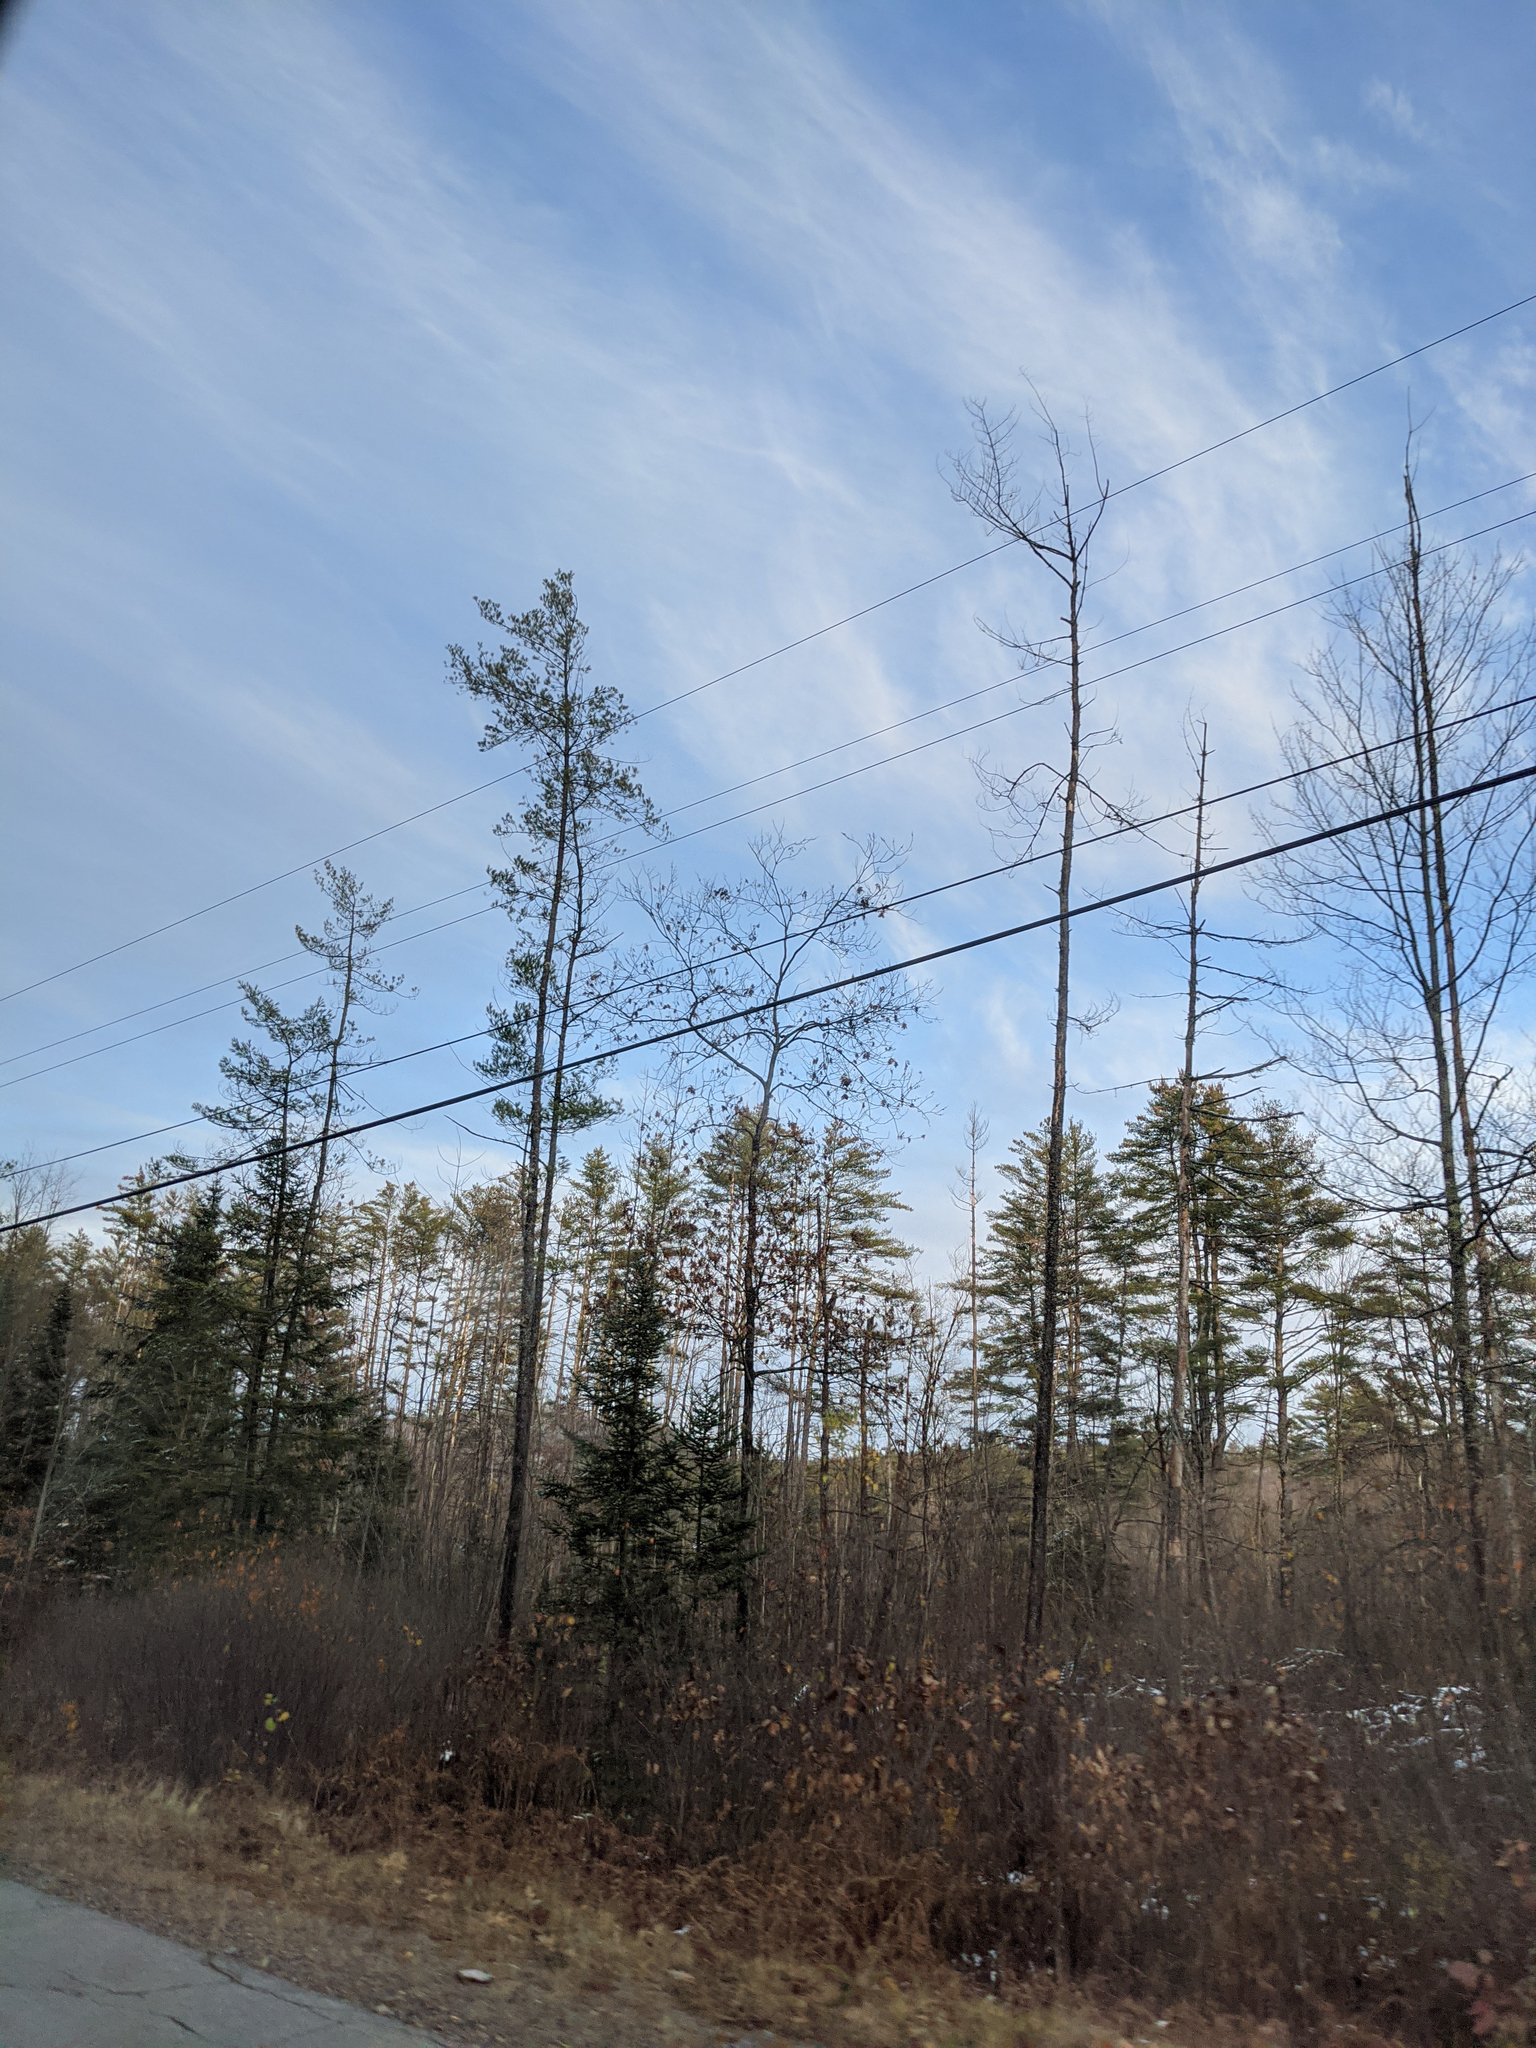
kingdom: Plantae
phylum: Tracheophyta
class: Pinopsida
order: Pinales
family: Pinaceae
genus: Pinus
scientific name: Pinus strobus
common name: Weymouth pine
